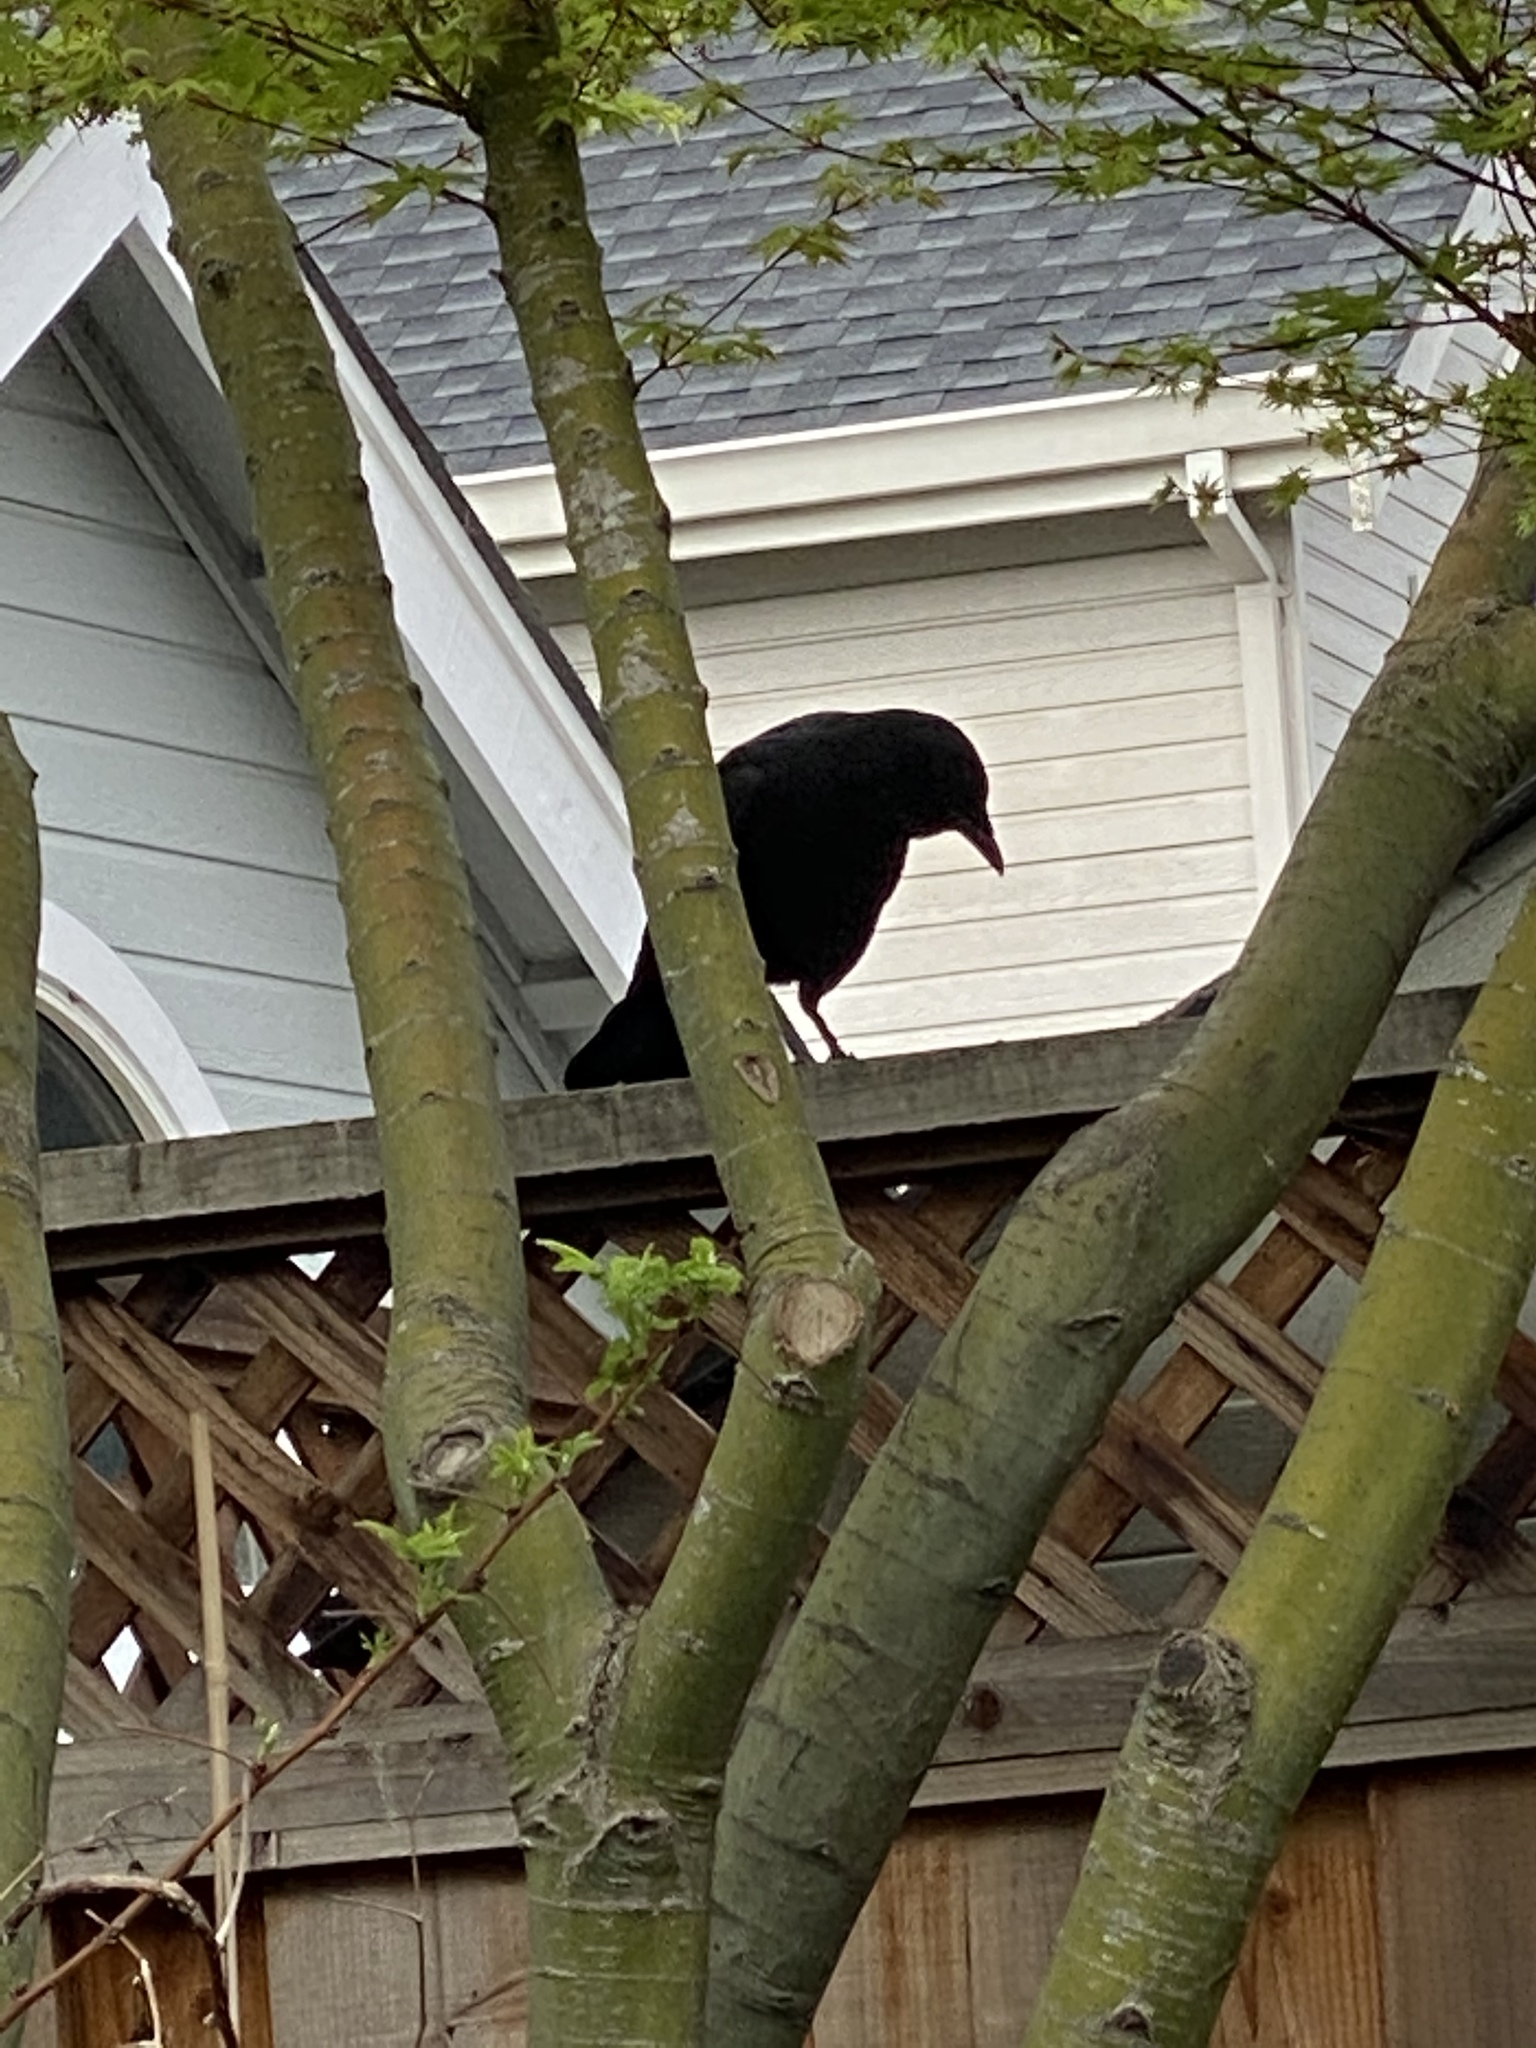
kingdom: Animalia
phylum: Chordata
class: Aves
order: Passeriformes
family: Corvidae
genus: Corvus
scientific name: Corvus brachyrhynchos
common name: American crow
